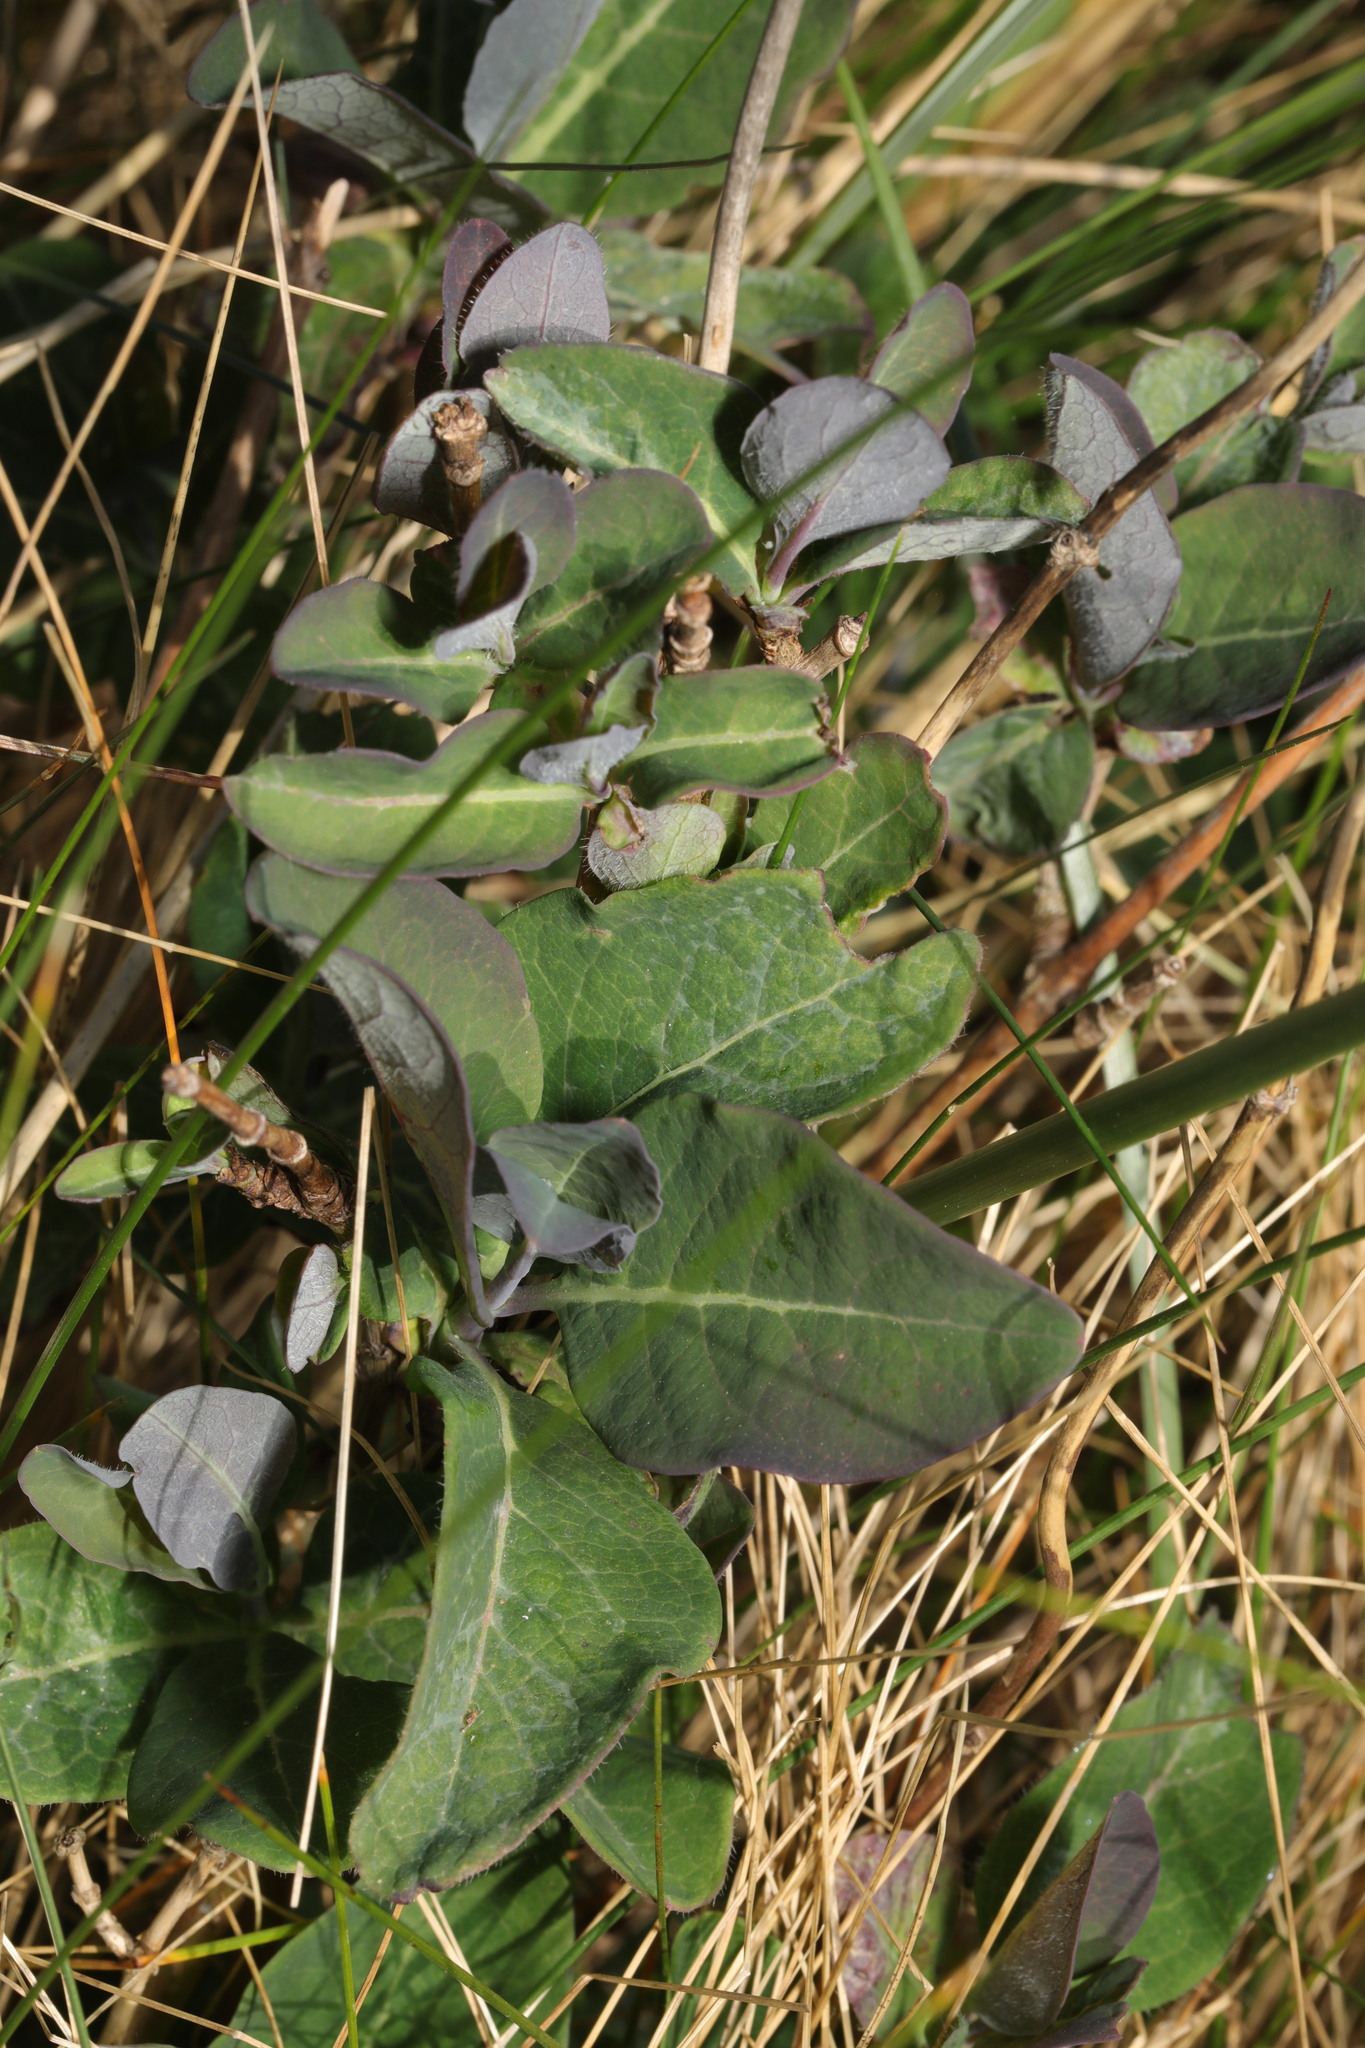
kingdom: Plantae
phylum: Tracheophyta
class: Magnoliopsida
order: Dipsacales
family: Caprifoliaceae
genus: Lonicera
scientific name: Lonicera periclymenum
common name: European honeysuckle
